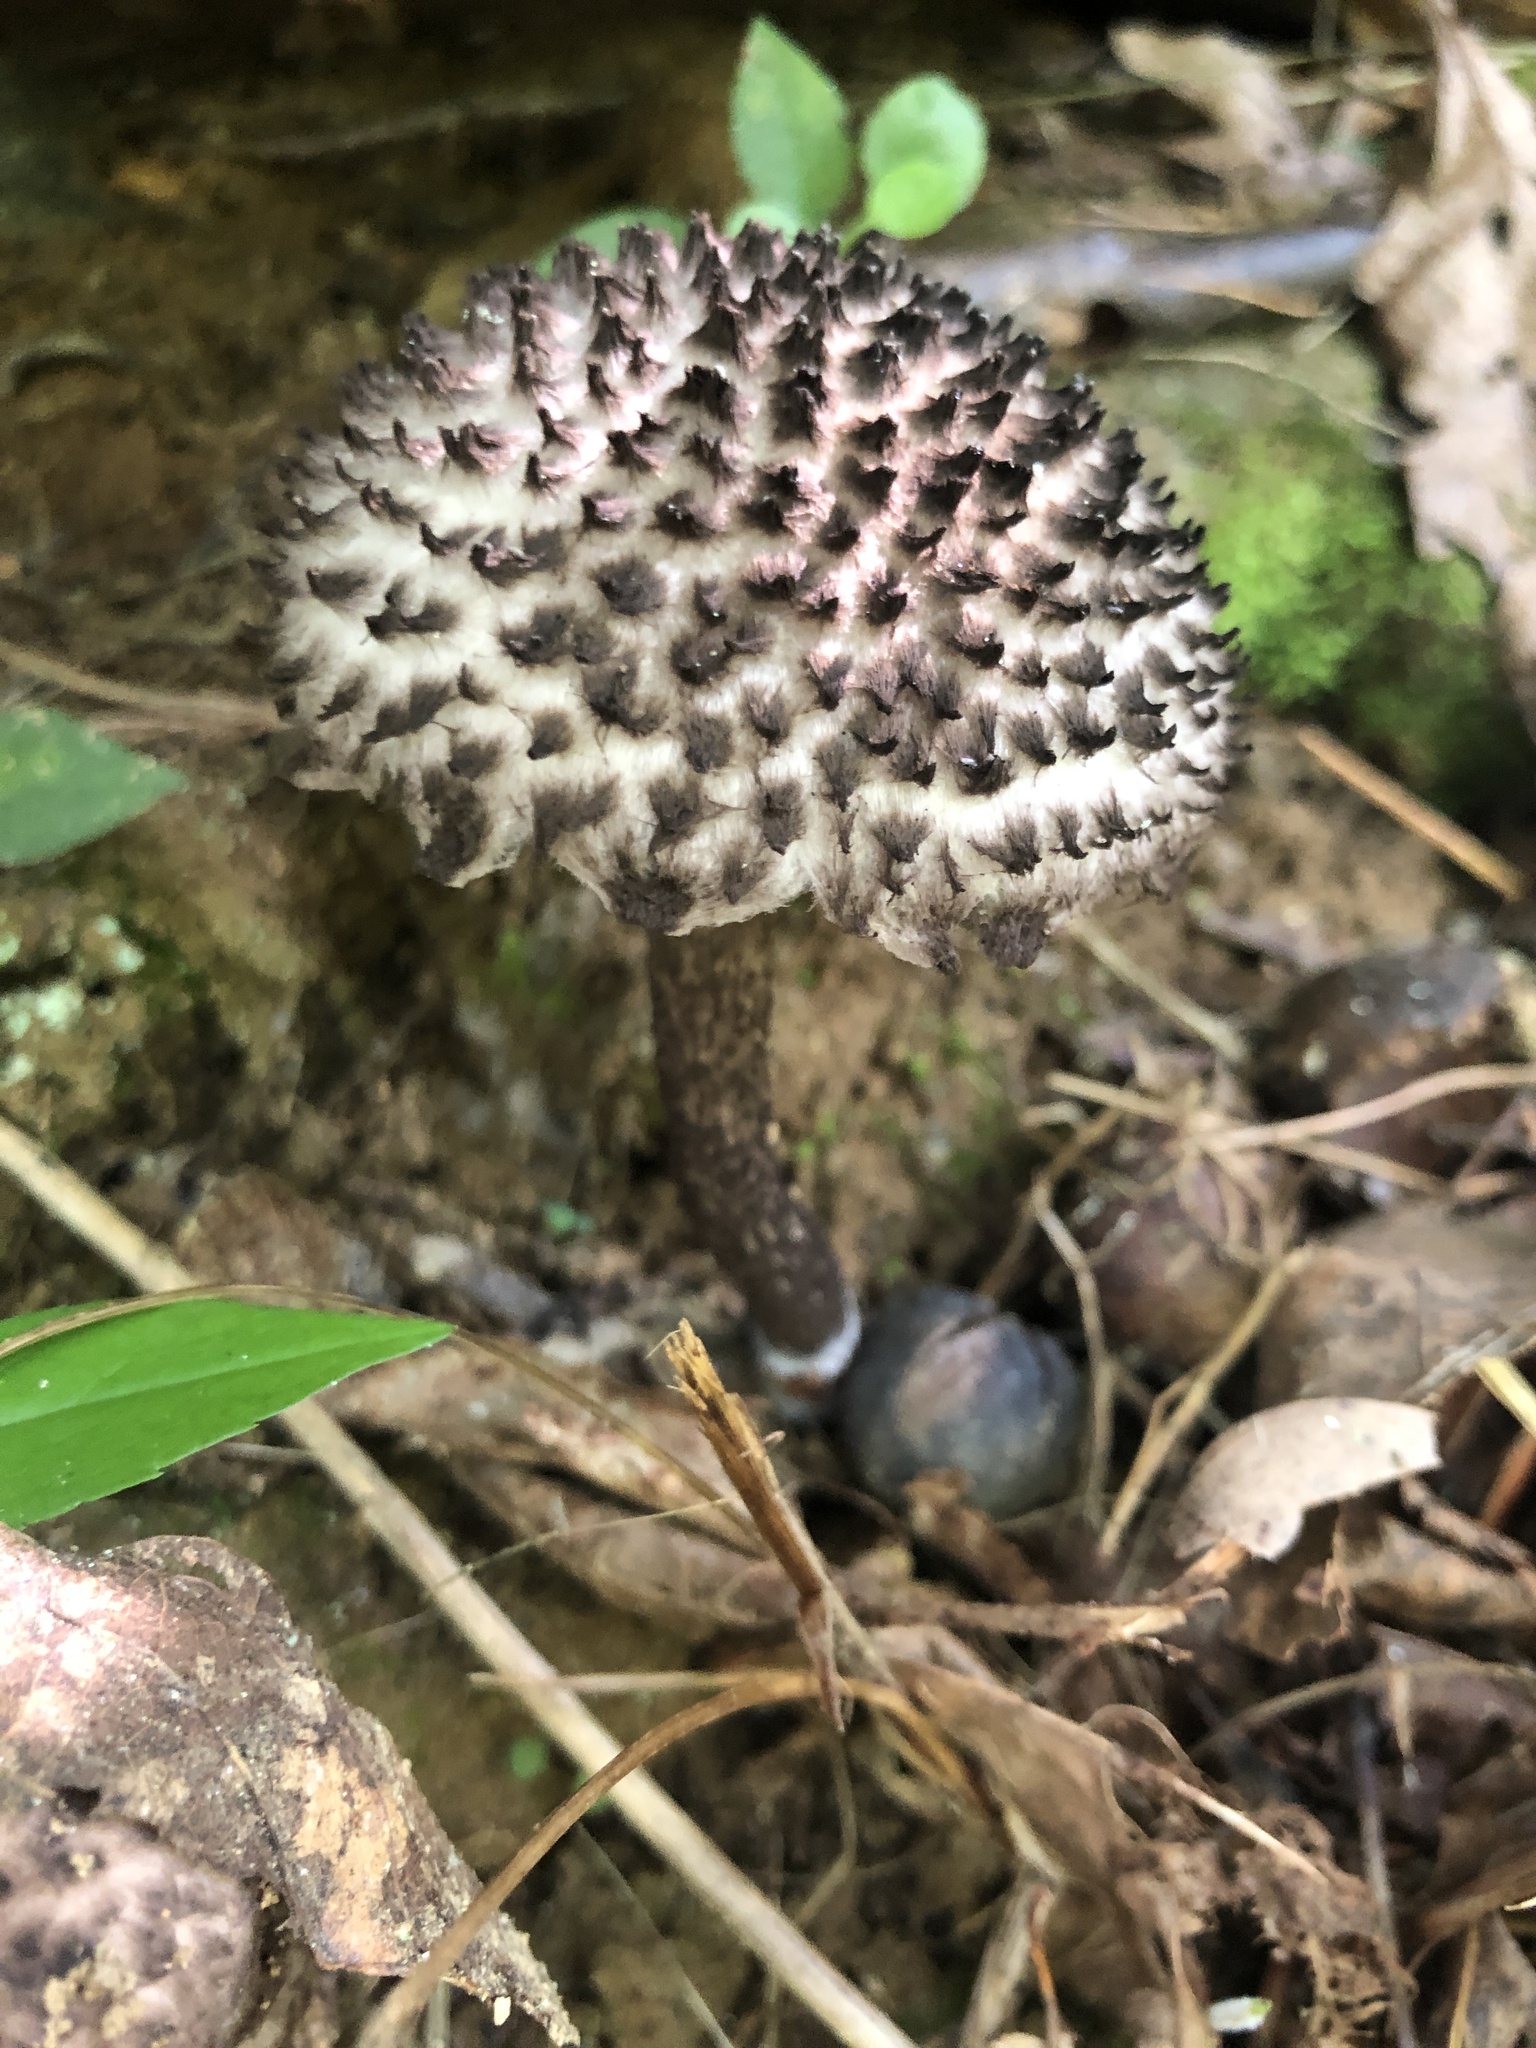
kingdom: Fungi
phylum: Basidiomycota
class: Agaricomycetes
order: Boletales
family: Boletaceae
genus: Strobilomyces
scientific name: Strobilomyces strobilaceus
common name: Old man of the woods
